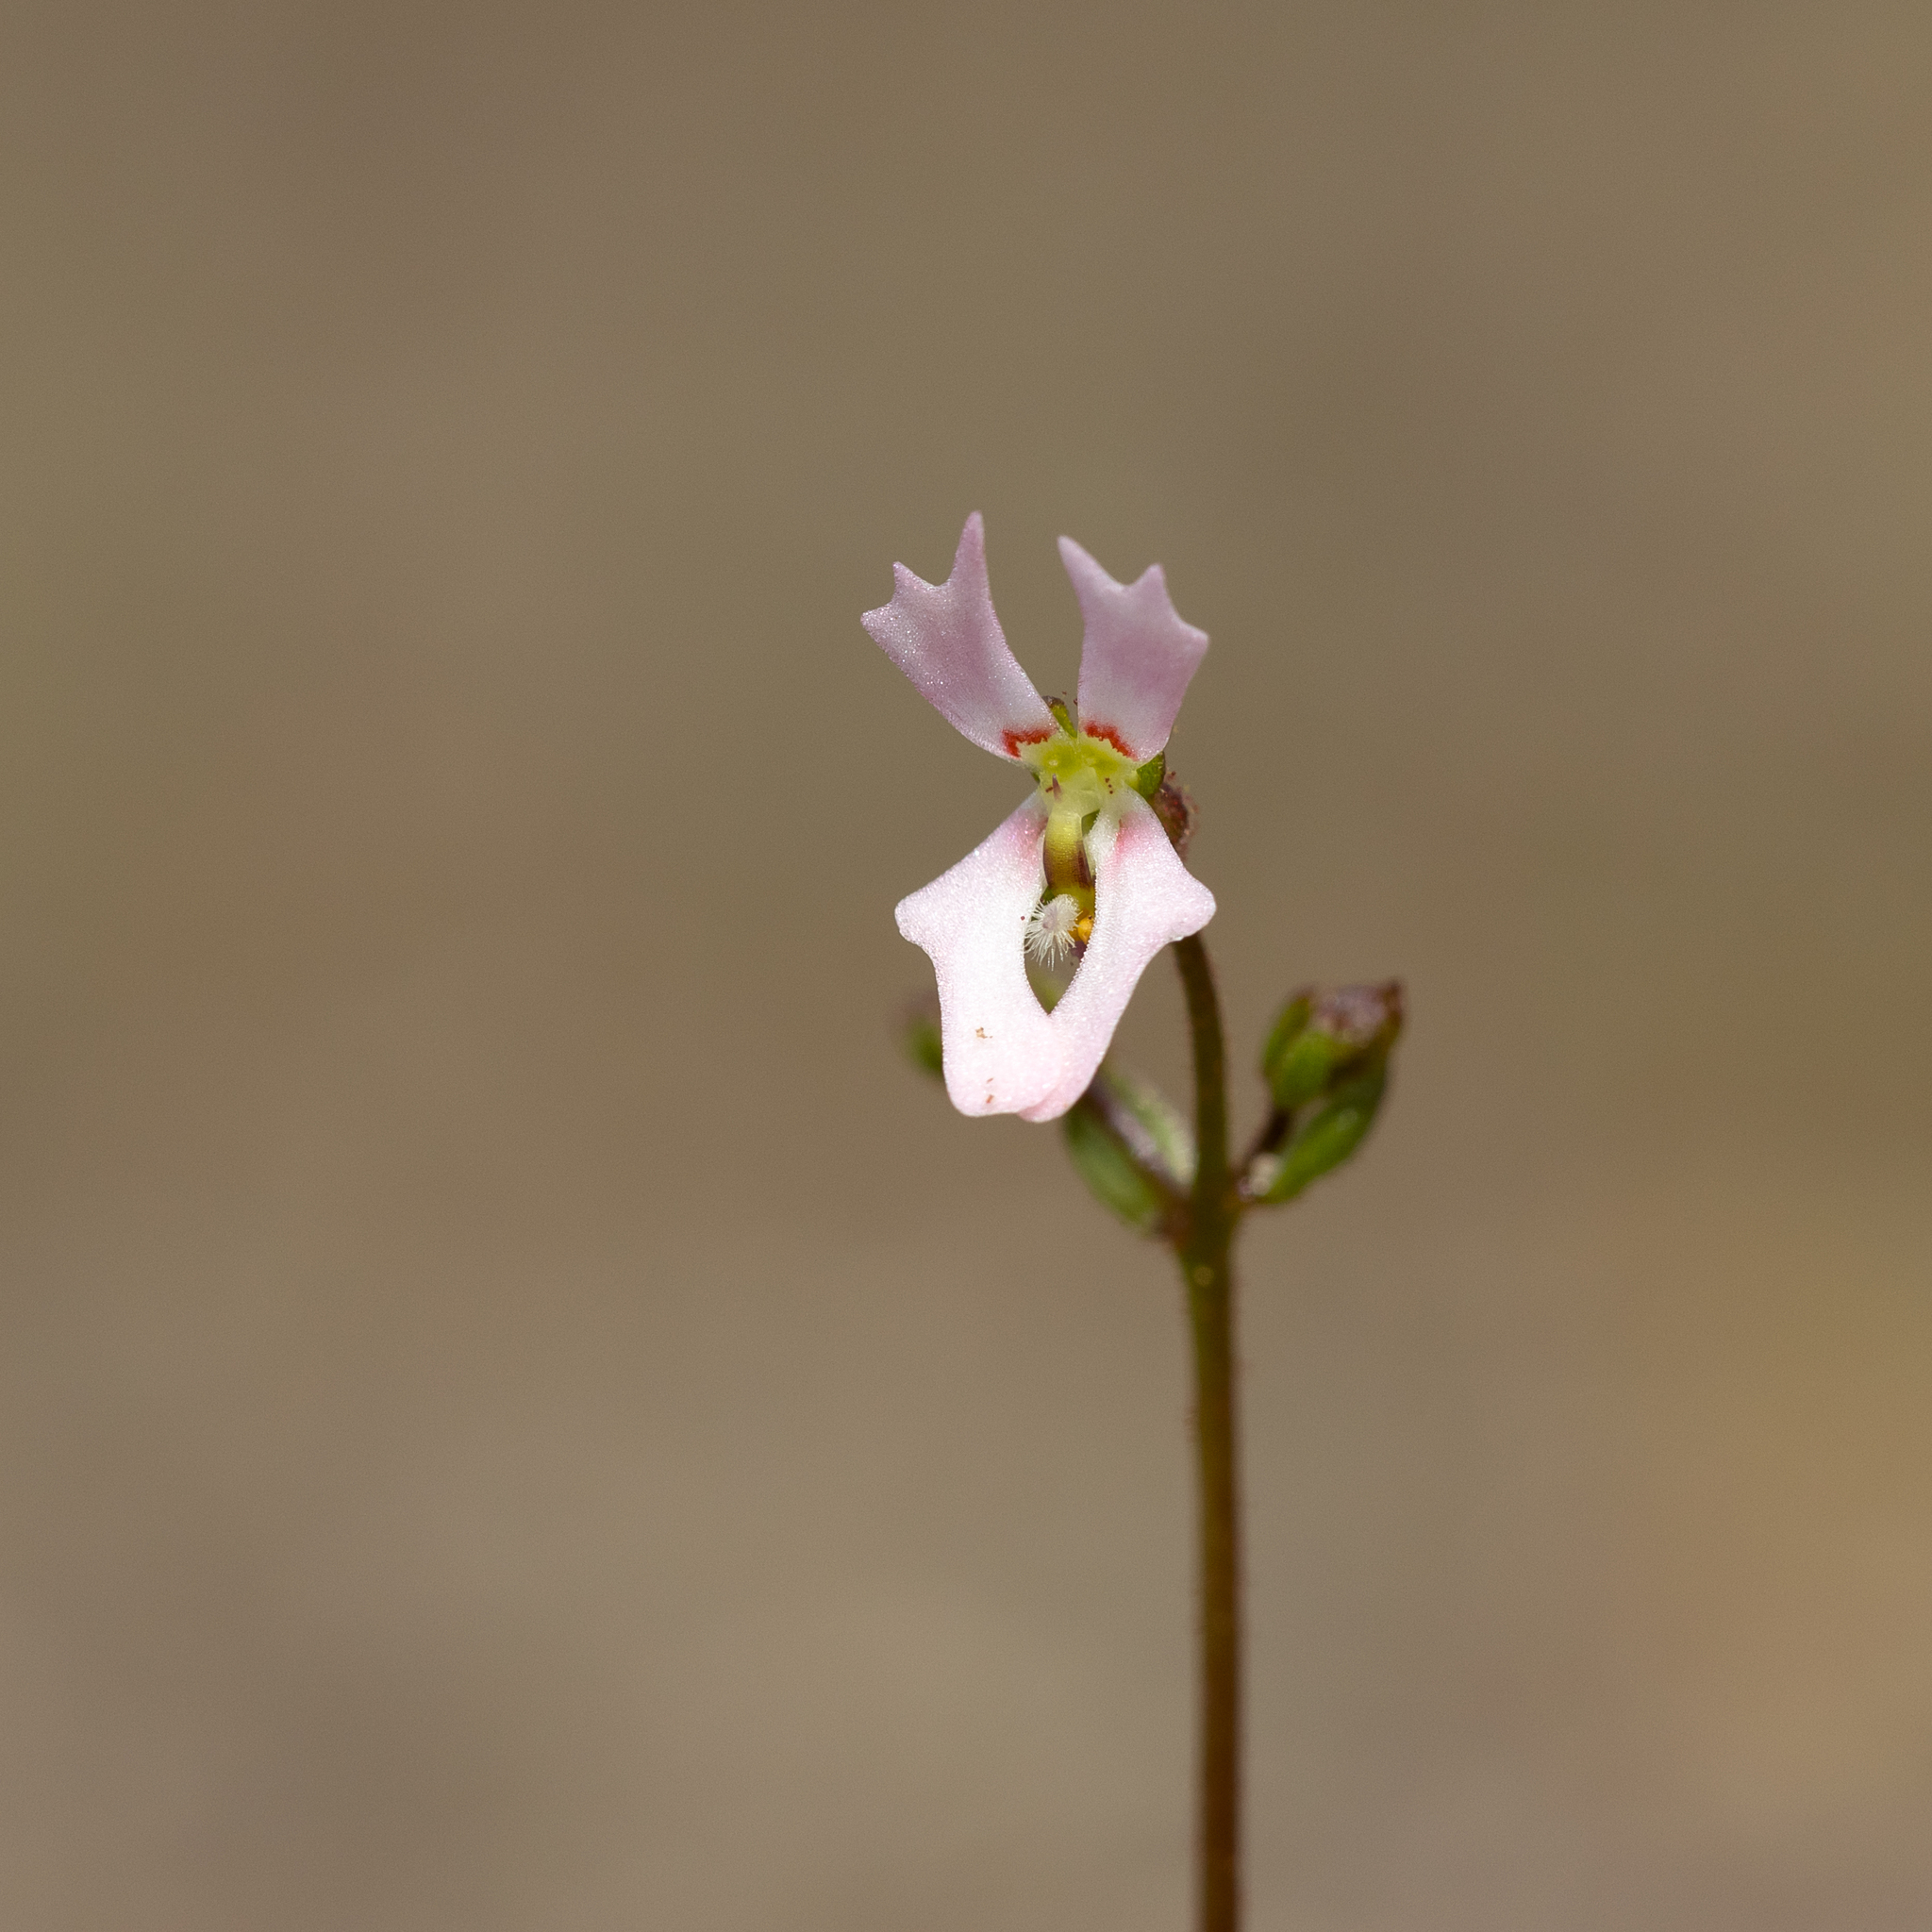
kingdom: Plantae
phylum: Tracheophyta
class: Magnoliopsida
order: Asterales
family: Stylidiaceae
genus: Stylidium
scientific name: Stylidium calcaratum
